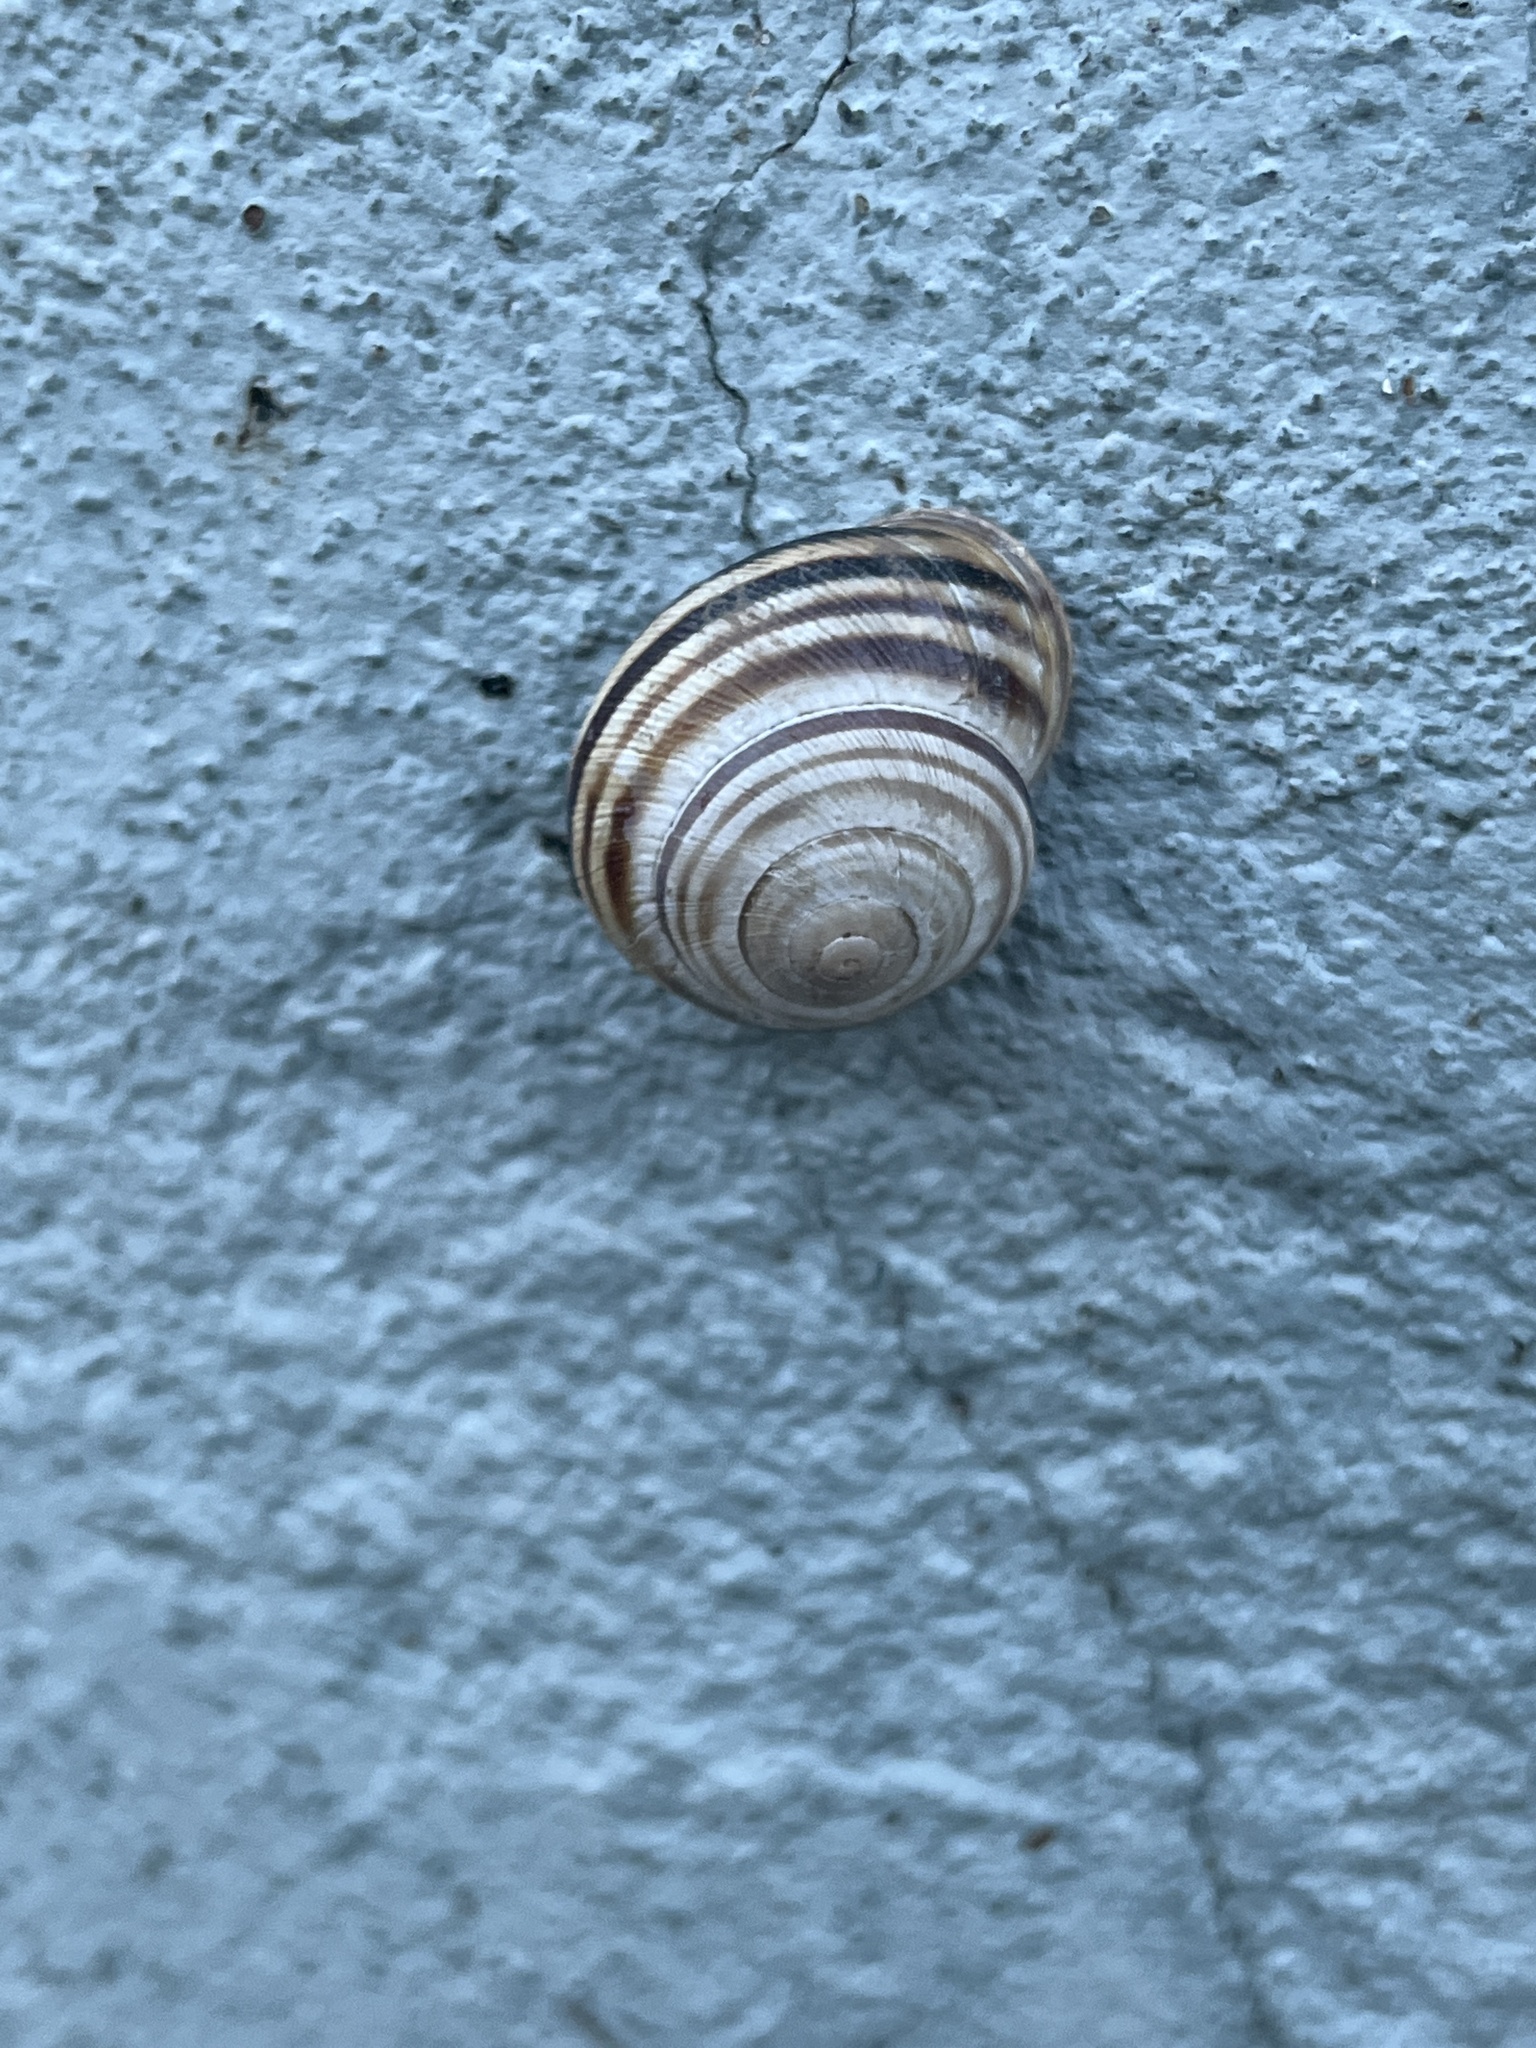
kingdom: Animalia
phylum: Mollusca
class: Gastropoda
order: Stylommatophora
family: Helicidae
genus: Caucasotachea
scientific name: Caucasotachea vindobonensis
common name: European helicid land snail
